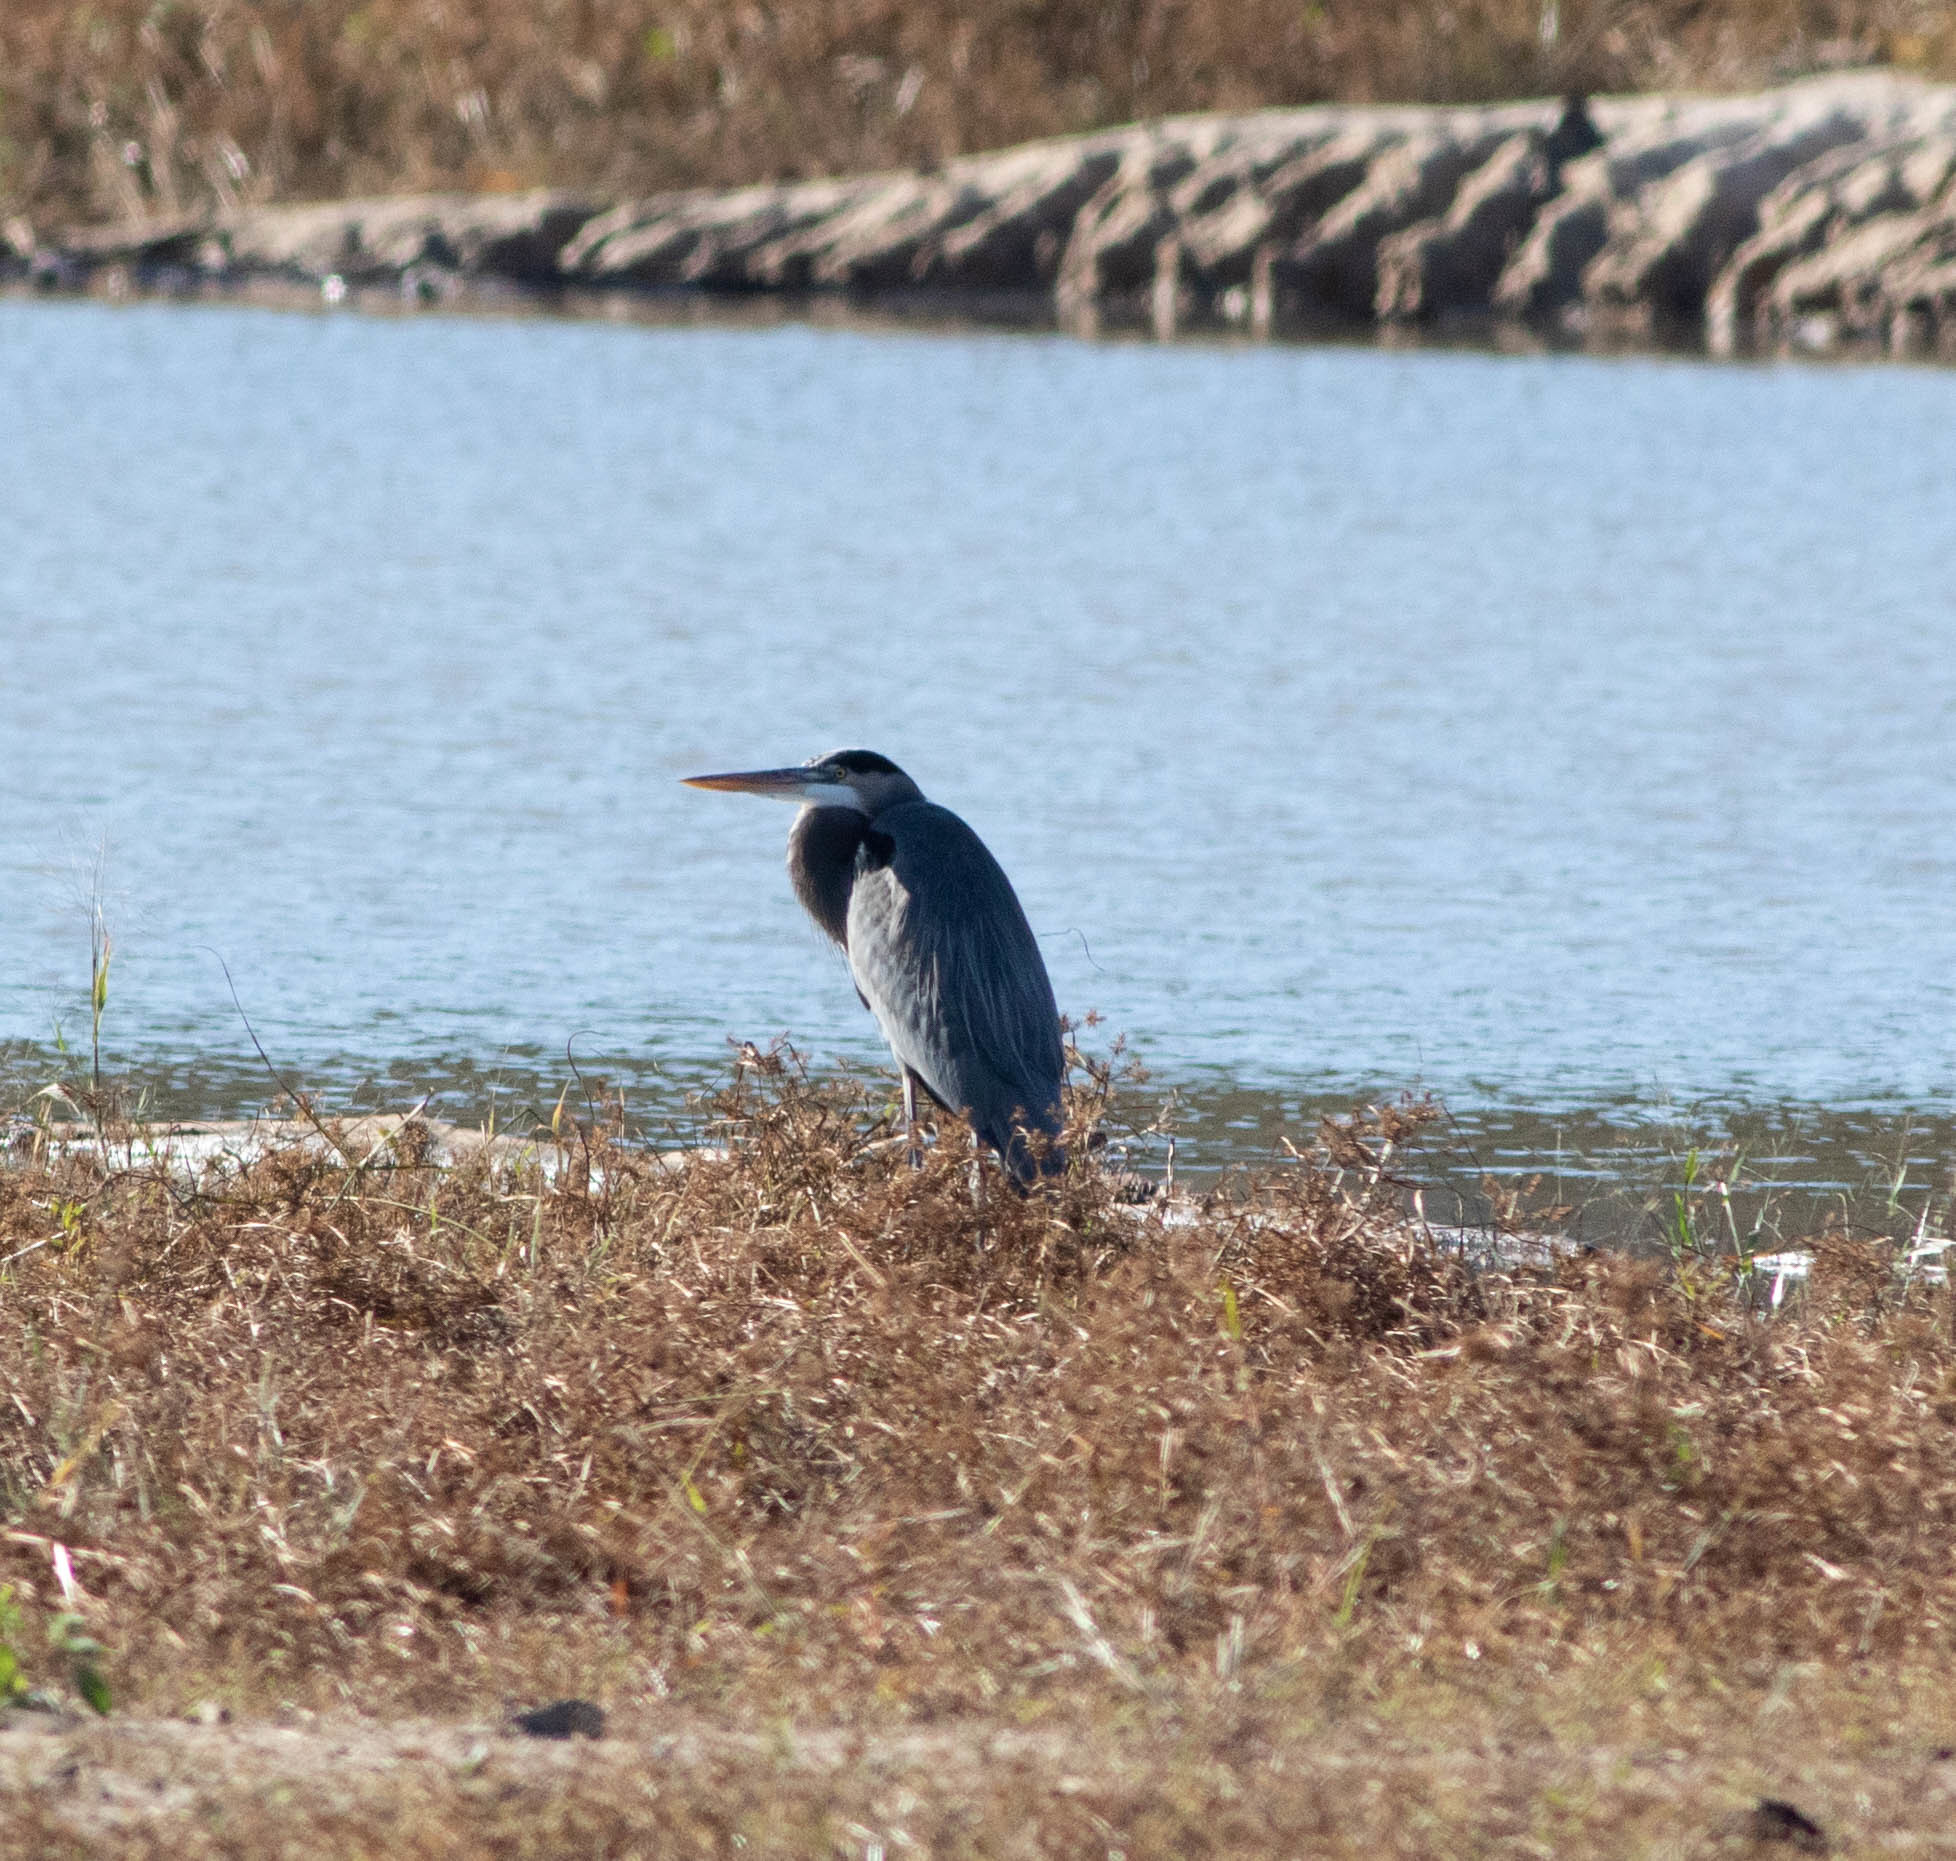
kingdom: Animalia
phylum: Chordata
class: Aves
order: Pelecaniformes
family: Ardeidae
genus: Ardea
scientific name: Ardea herodias
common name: Great blue heron
